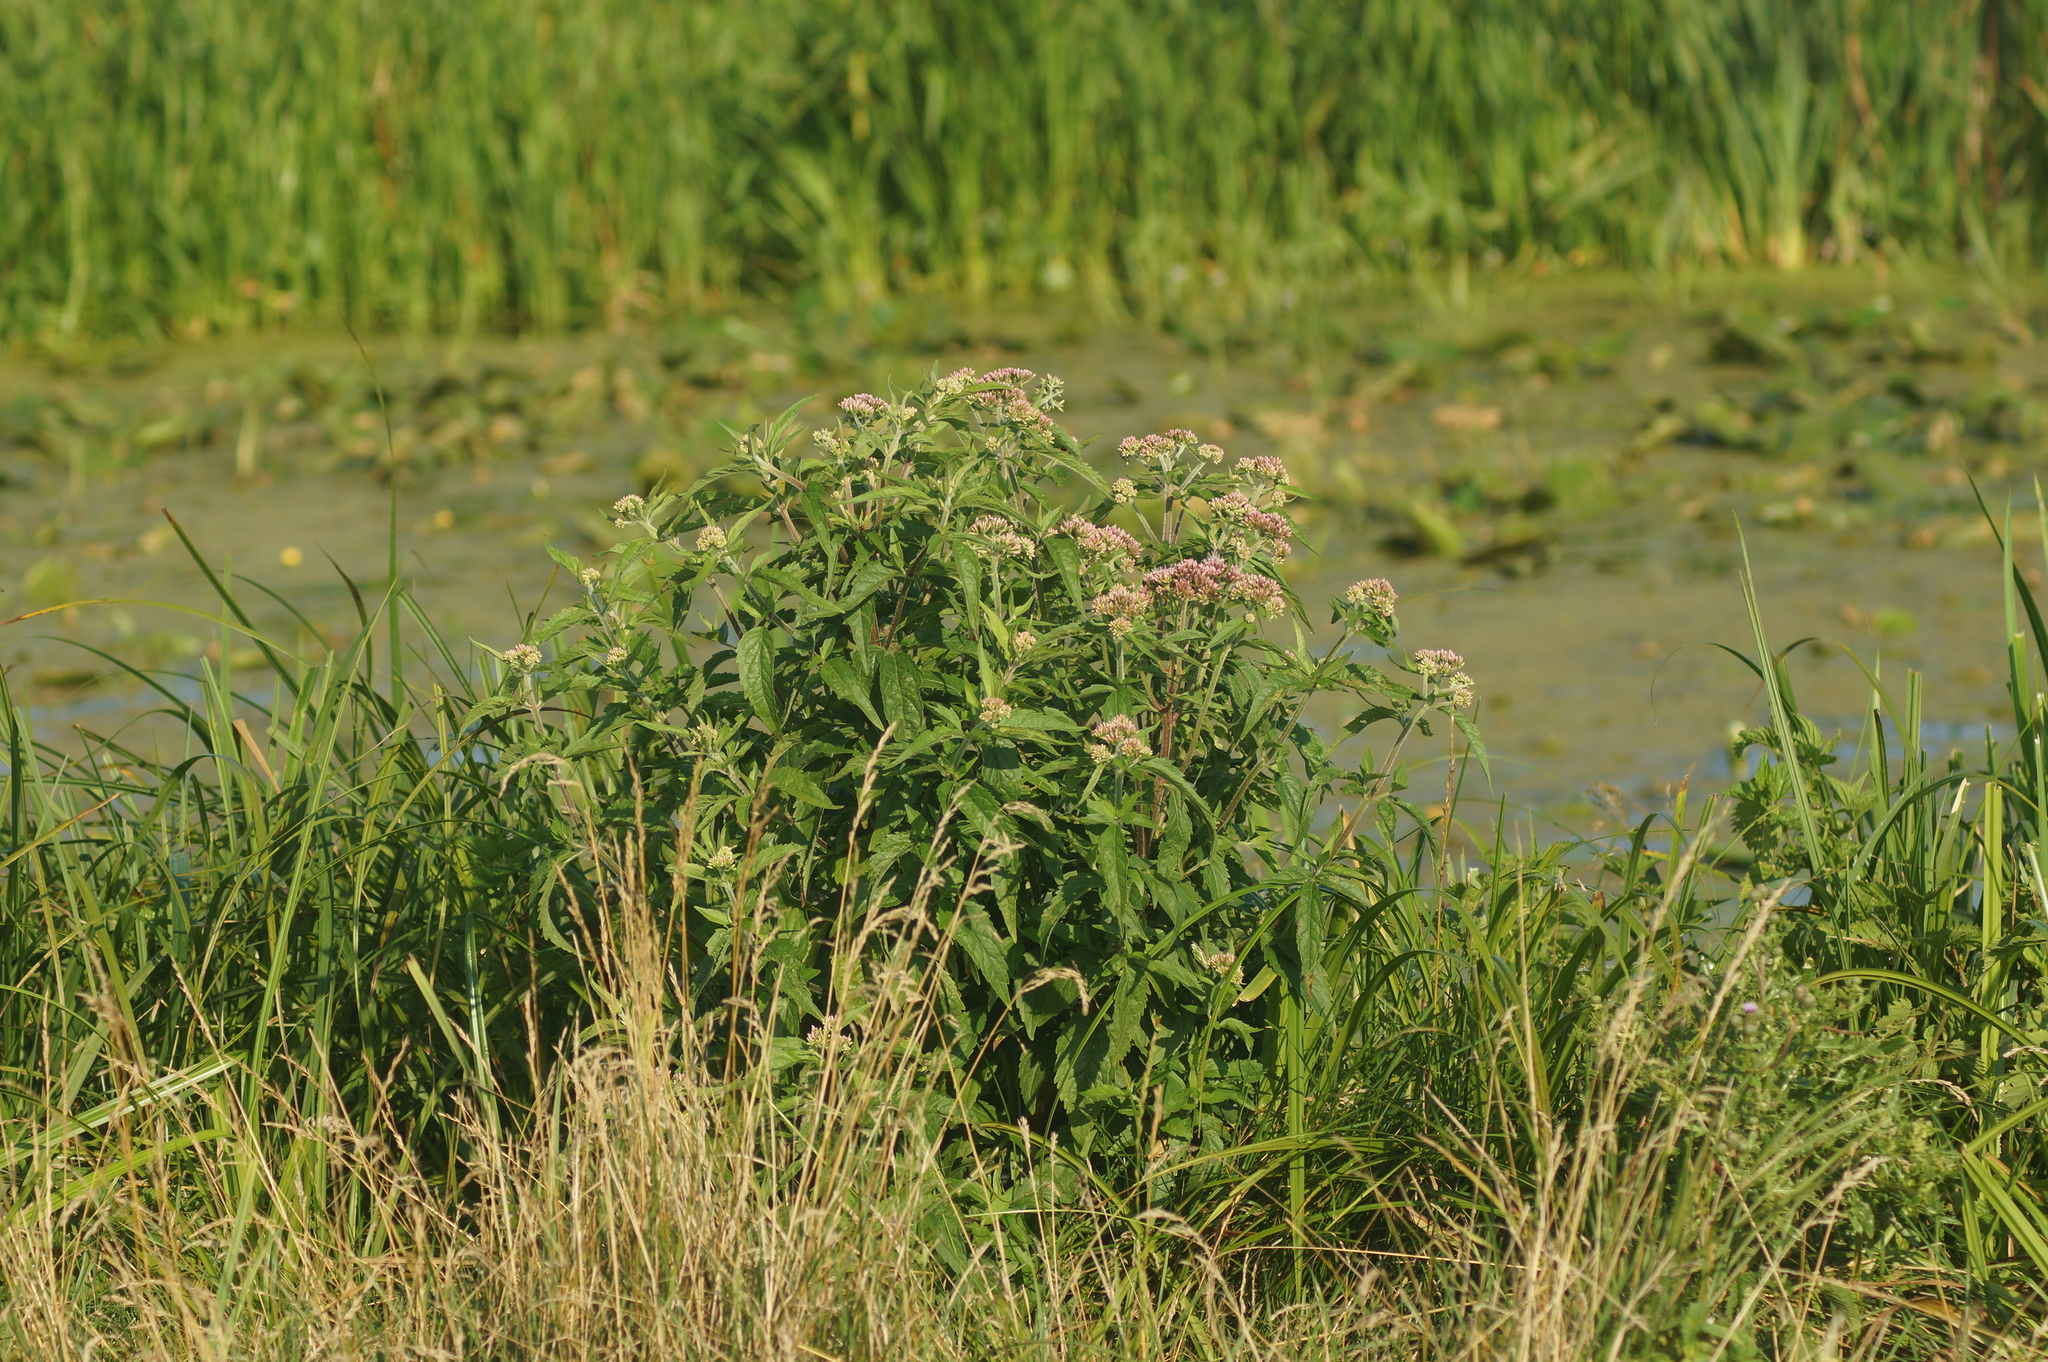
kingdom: Plantae
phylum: Tracheophyta
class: Magnoliopsida
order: Asterales
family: Asteraceae
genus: Eupatorium
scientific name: Eupatorium cannabinum
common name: Hemp-agrimony
